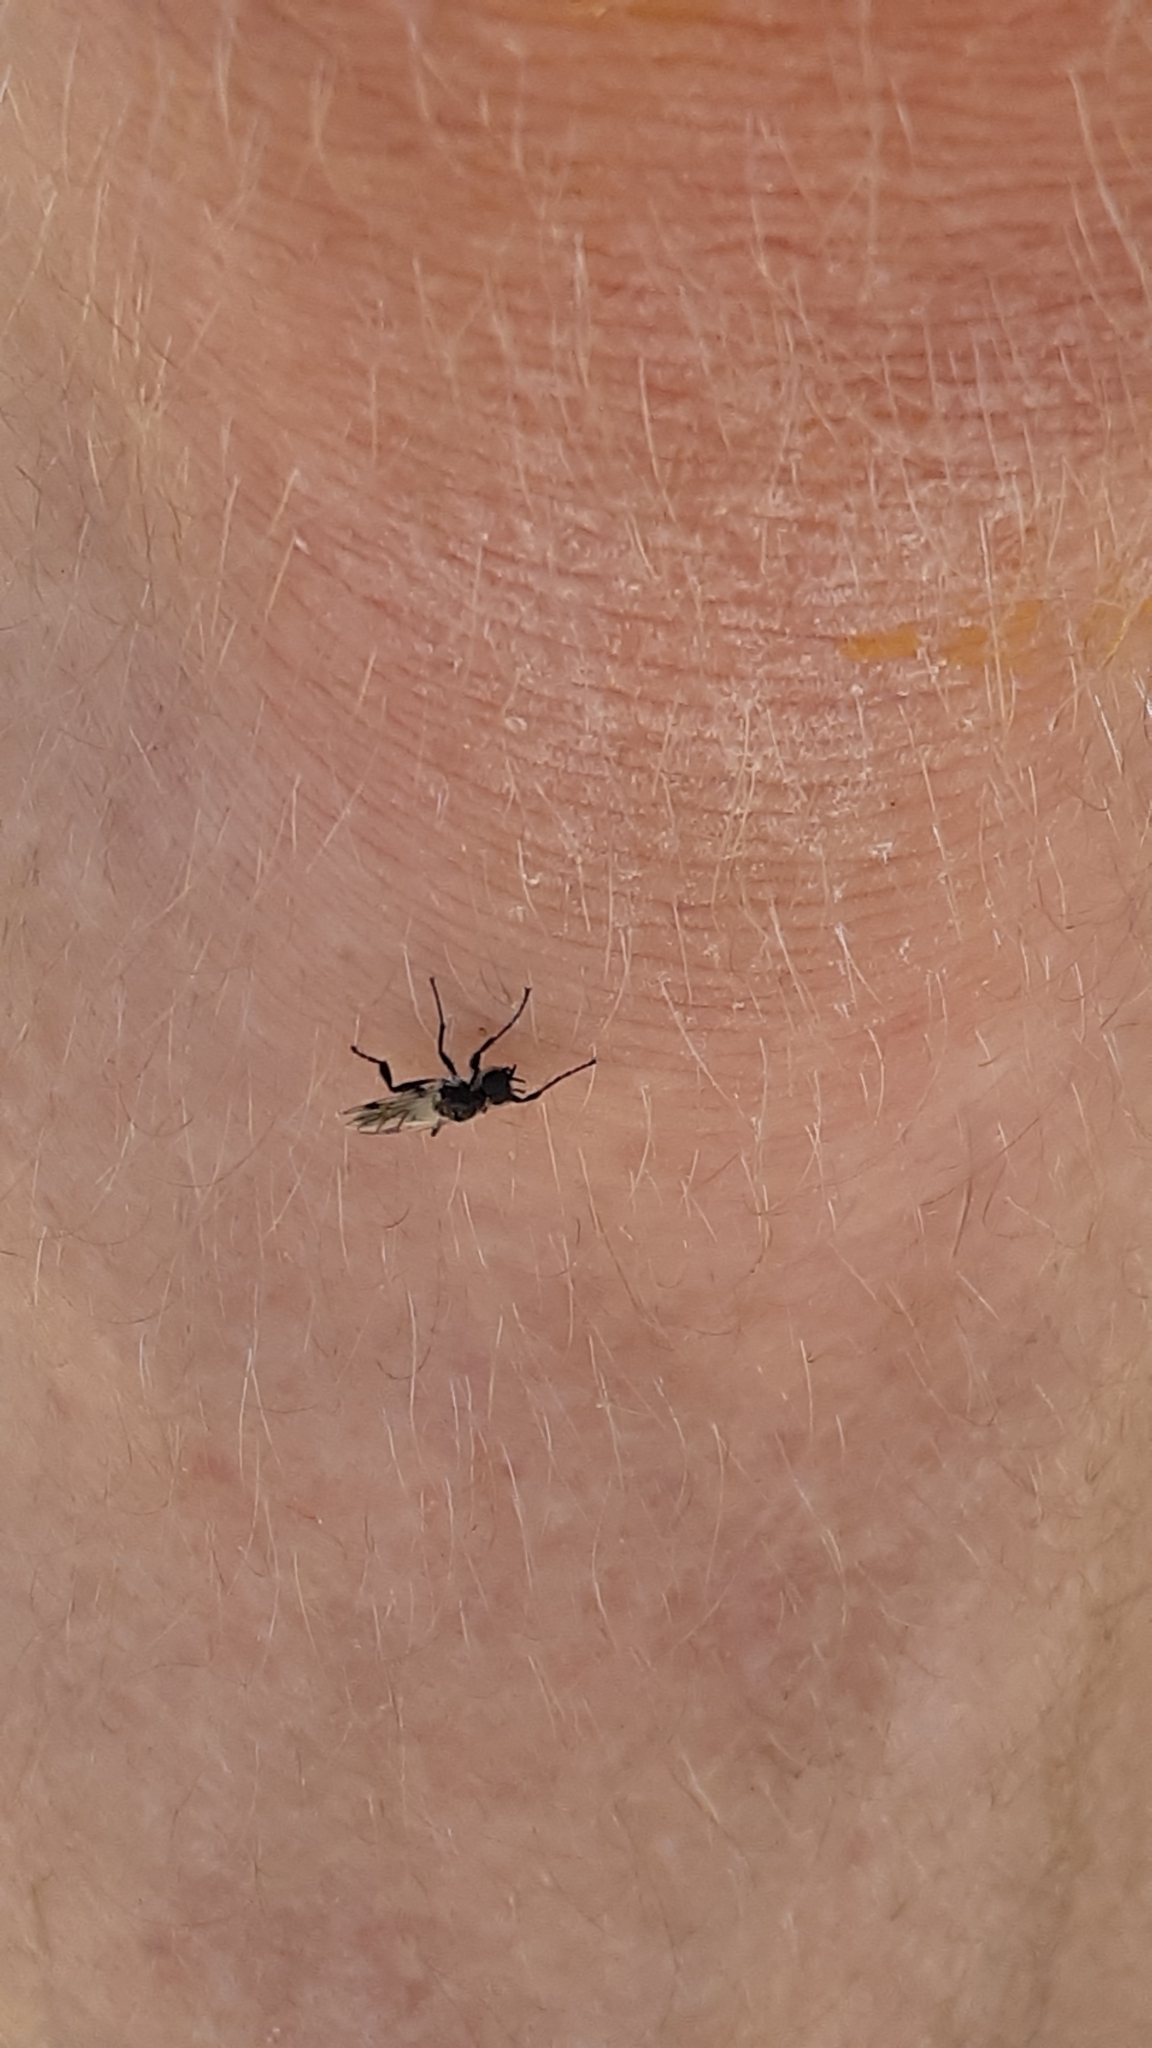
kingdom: Animalia
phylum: Arthropoda
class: Insecta
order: Diptera
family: Bibionidae
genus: Bibio
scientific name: Bibio albipennis
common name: White-winged march fly
